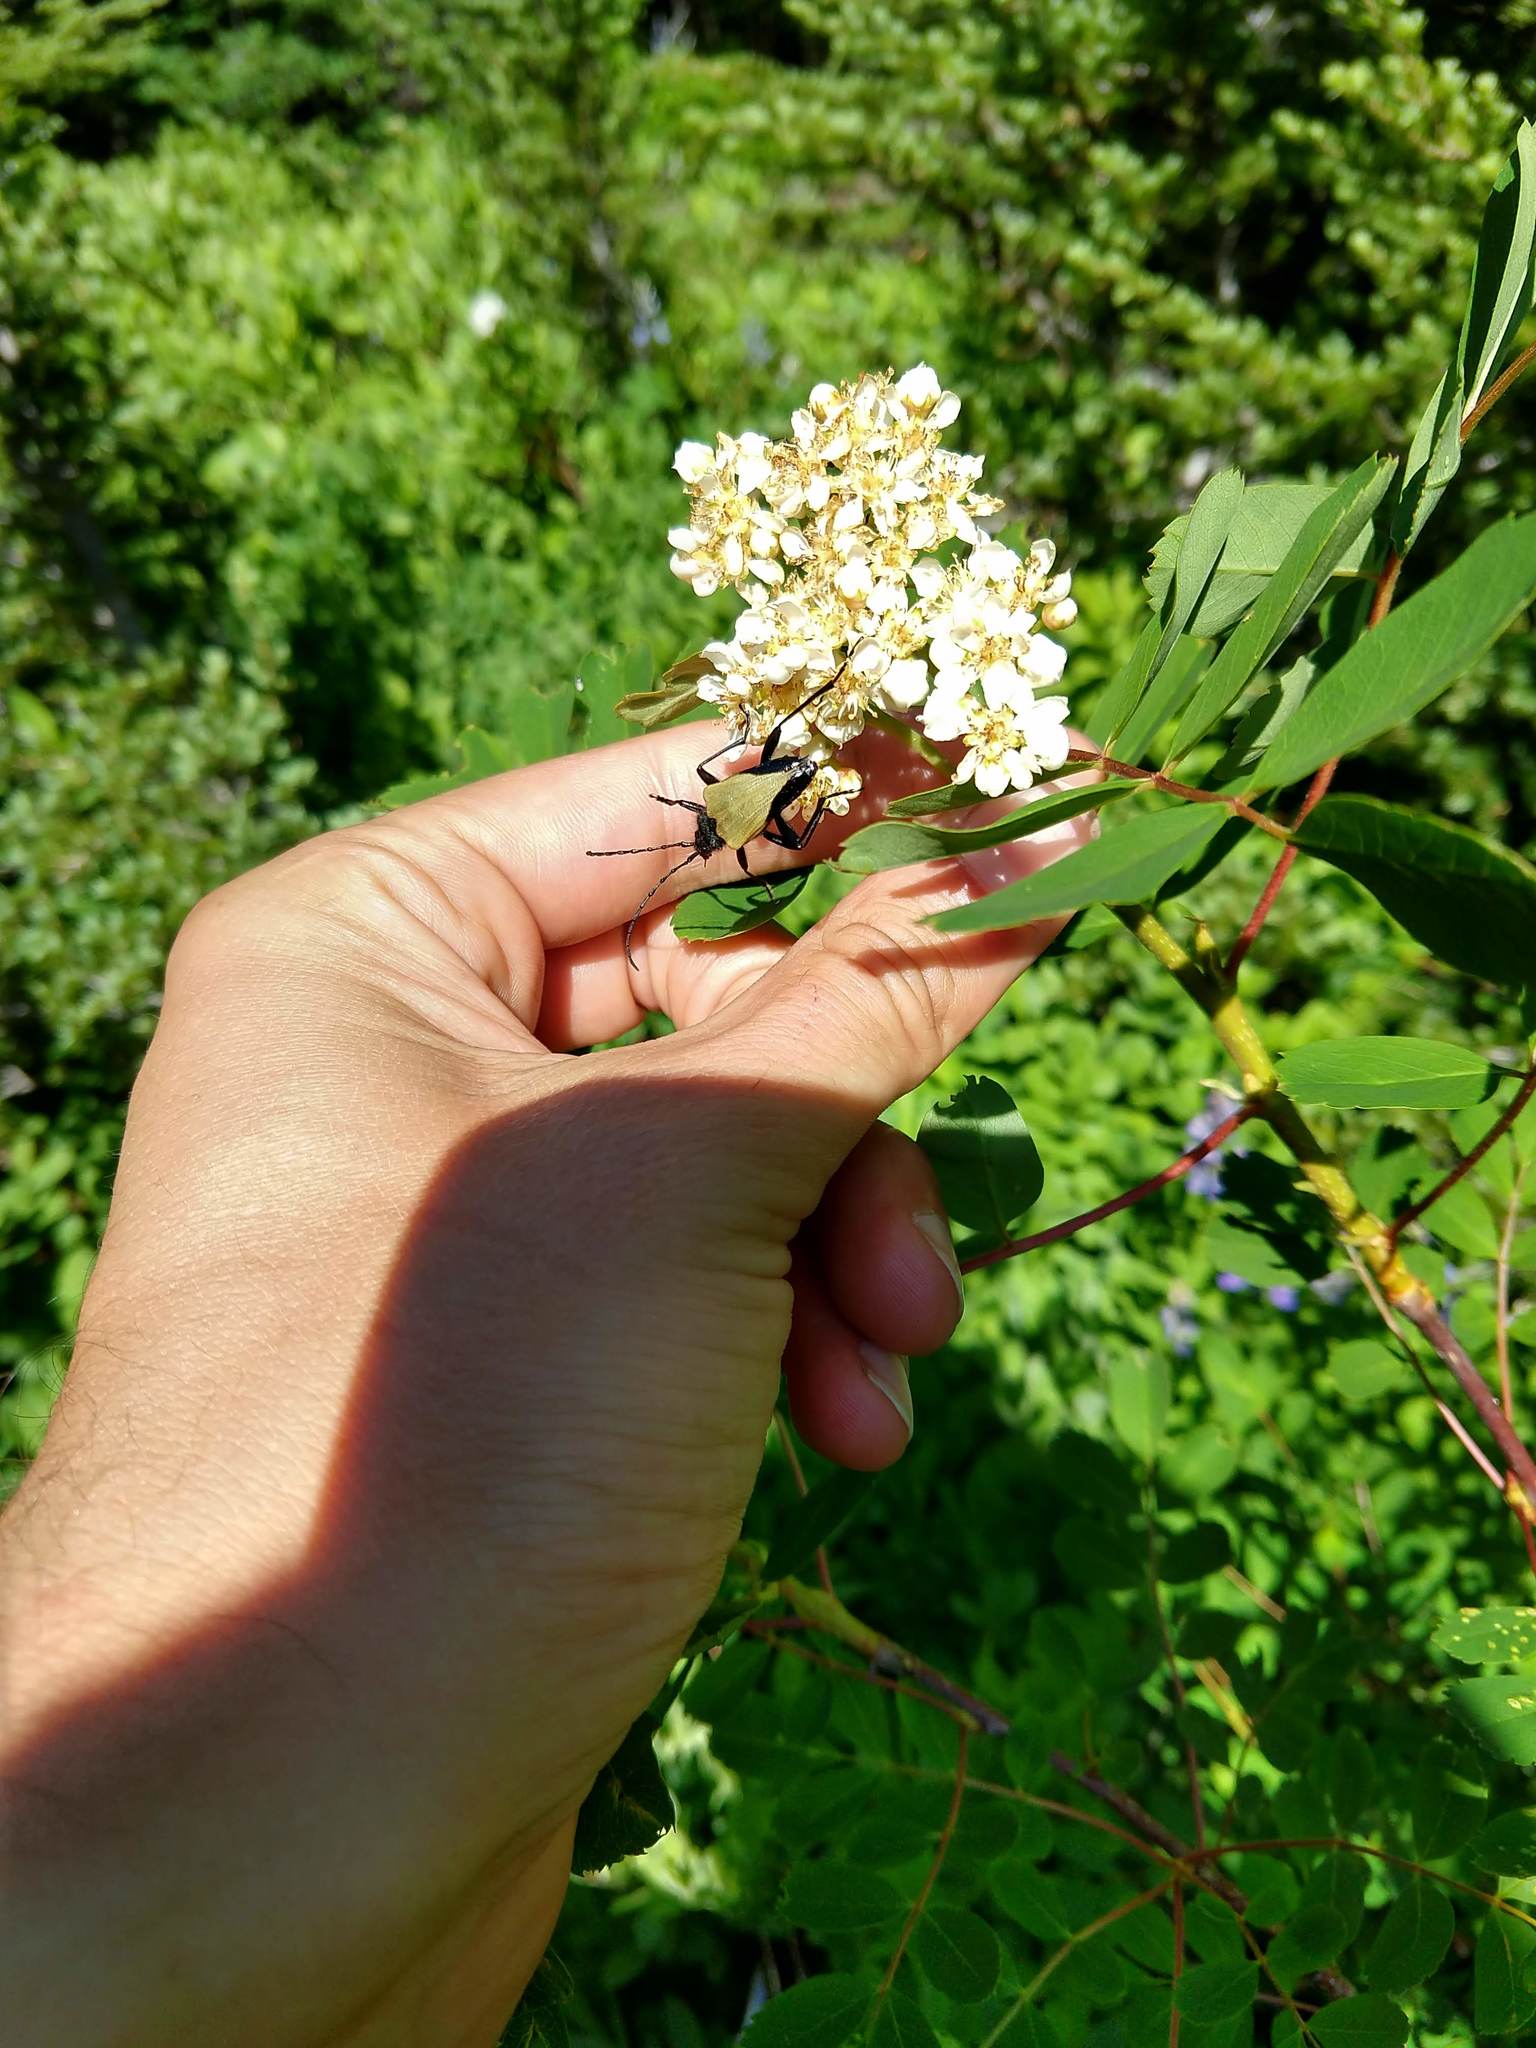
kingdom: Animalia
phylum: Arthropoda
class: Insecta
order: Coleoptera
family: Cerambycidae
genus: Pachyta
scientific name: Pachyta armata
